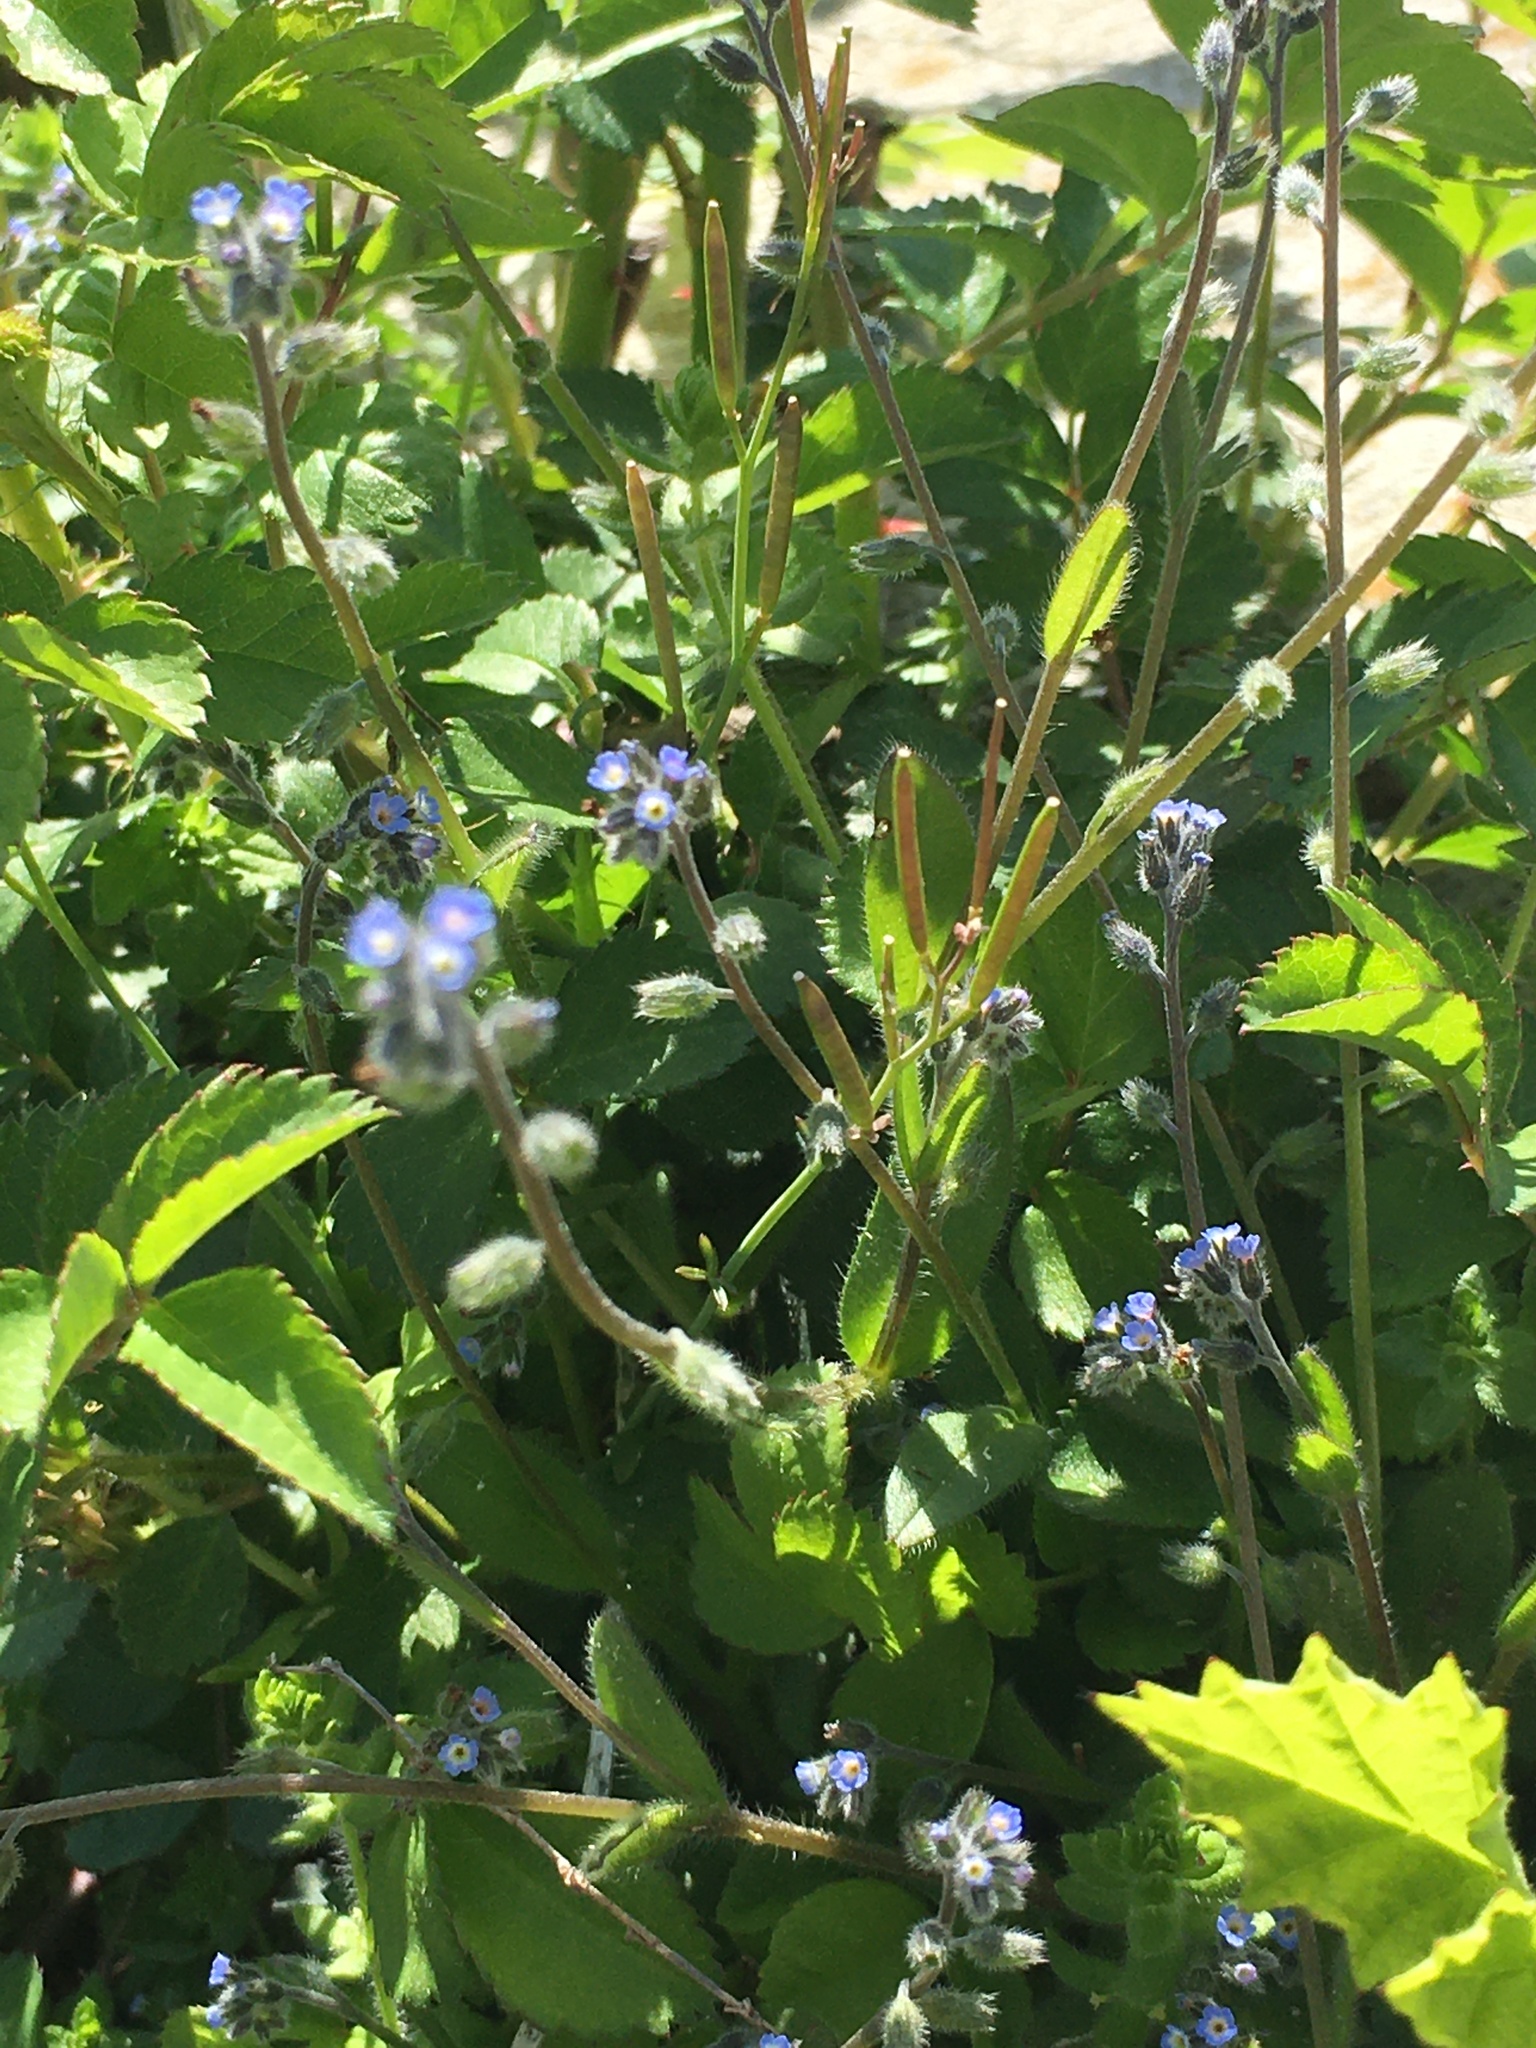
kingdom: Plantae
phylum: Tracheophyta
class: Magnoliopsida
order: Boraginales
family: Boraginaceae
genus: Myosotis
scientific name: Myosotis ramosissima
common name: Early forget-me-not
